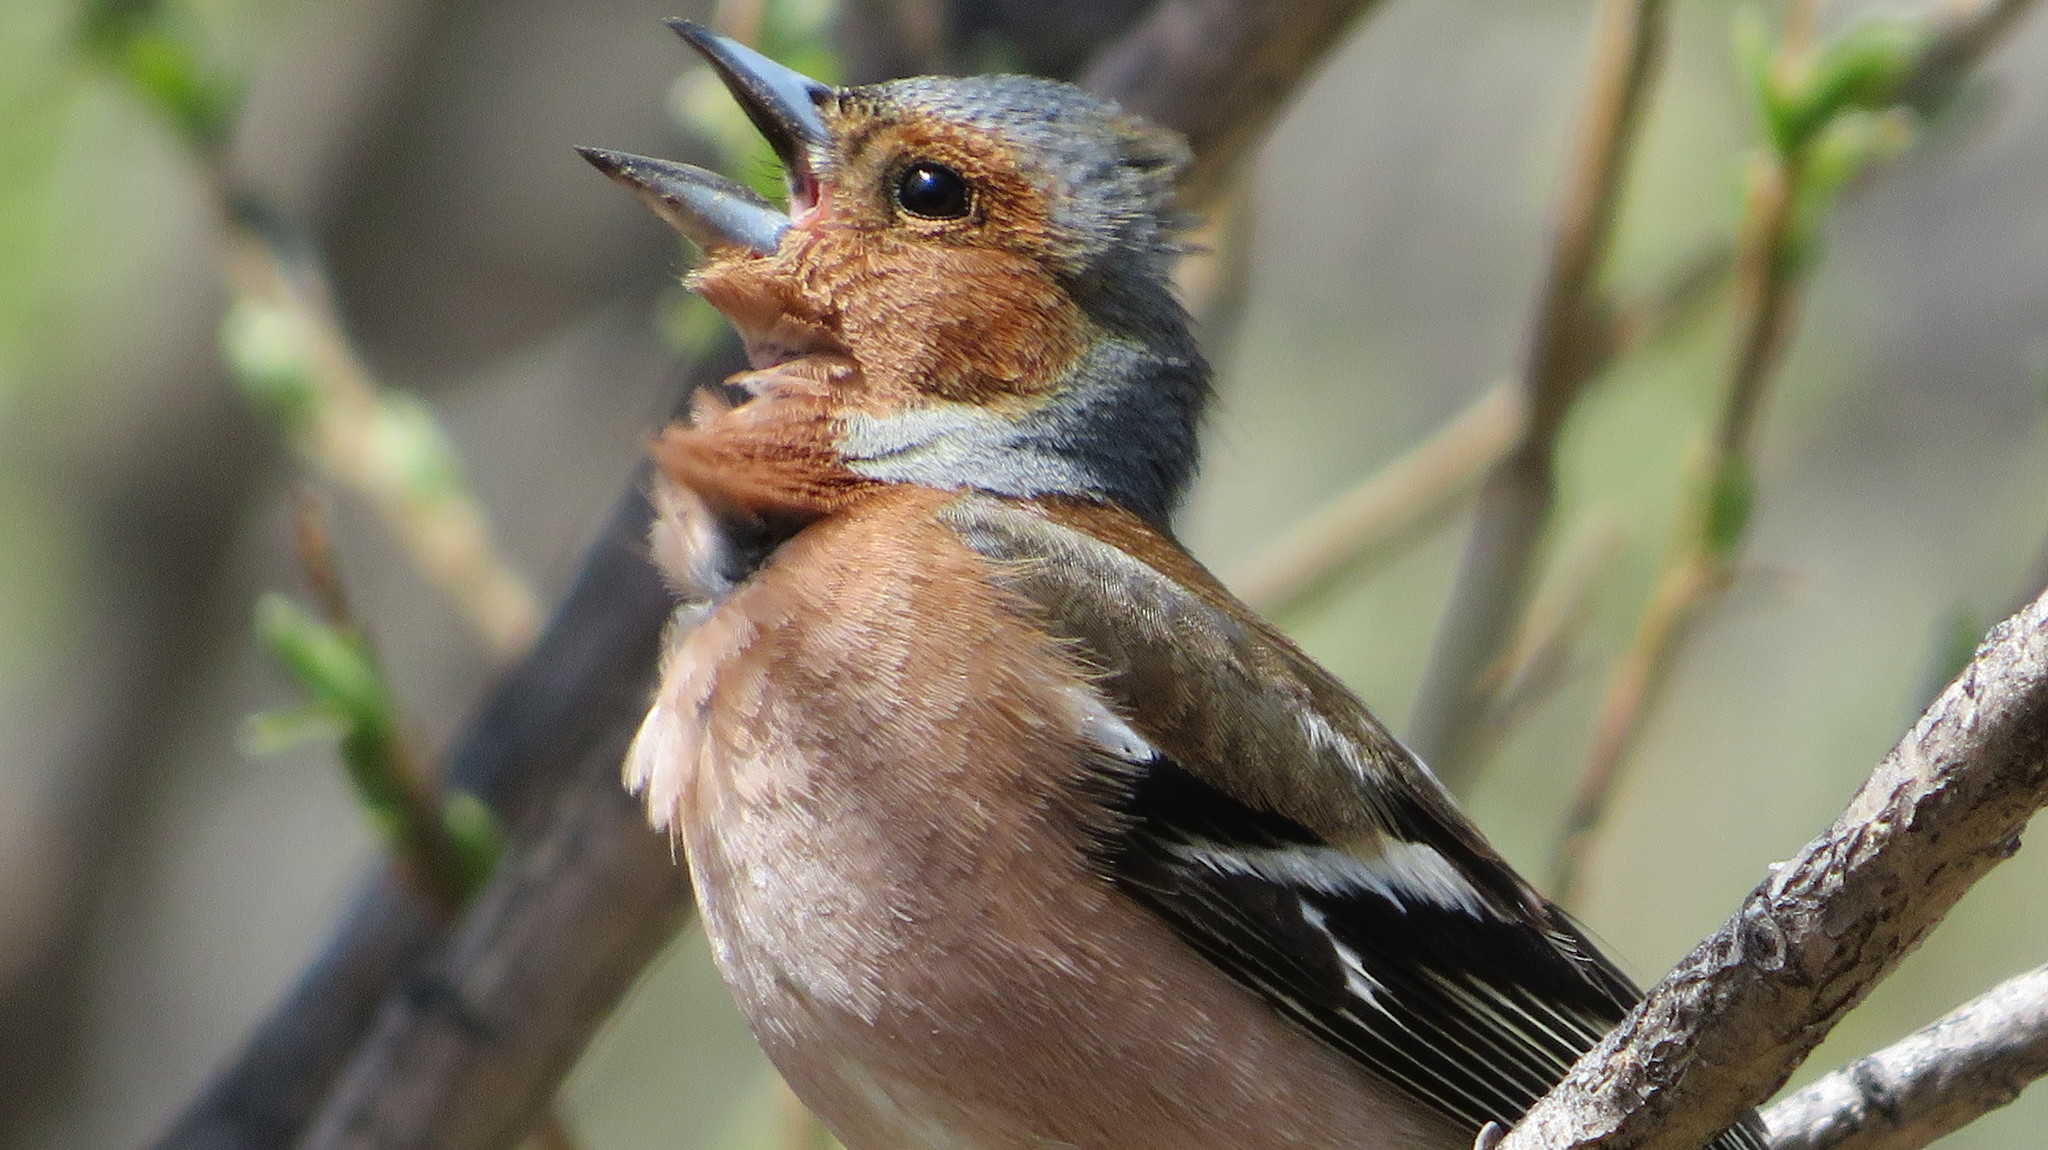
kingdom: Animalia
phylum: Chordata
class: Aves
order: Passeriformes
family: Fringillidae
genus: Fringilla
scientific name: Fringilla coelebs
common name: Common chaffinch
